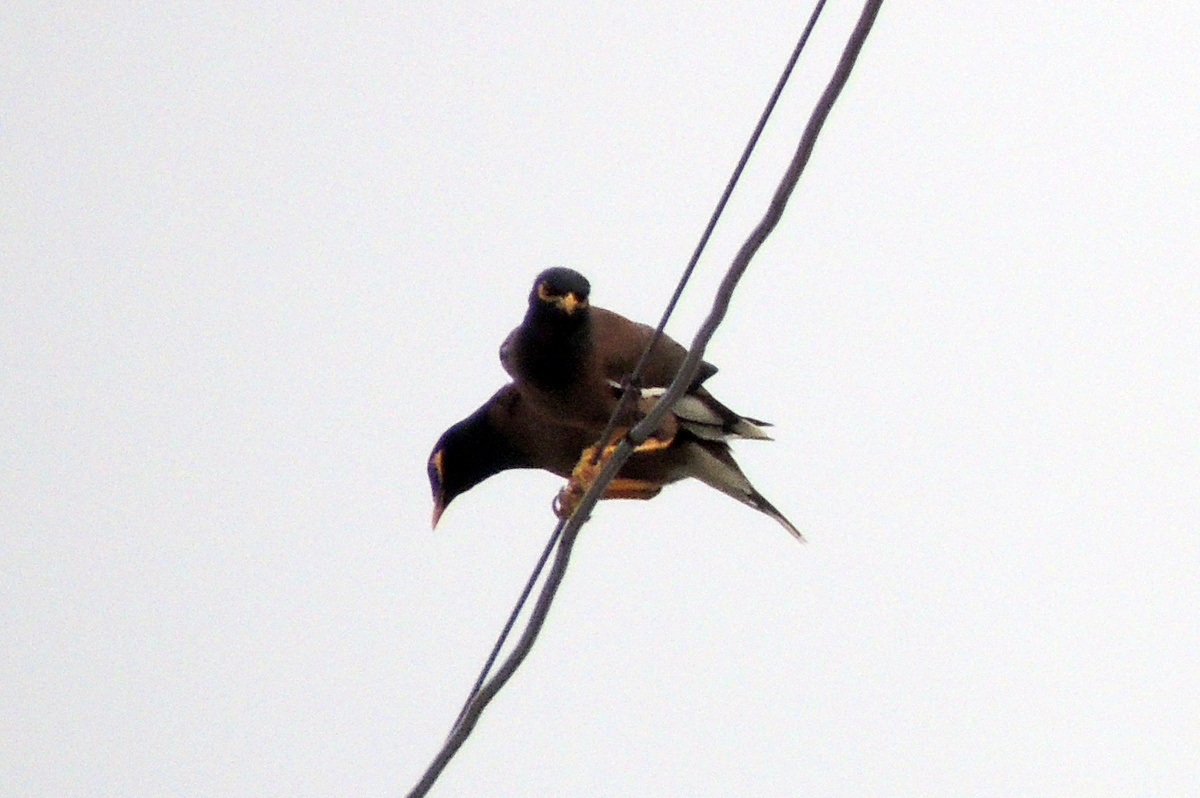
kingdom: Animalia
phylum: Chordata
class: Aves
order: Passeriformes
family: Sturnidae
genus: Acridotheres
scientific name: Acridotheres tristis
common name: Common myna
